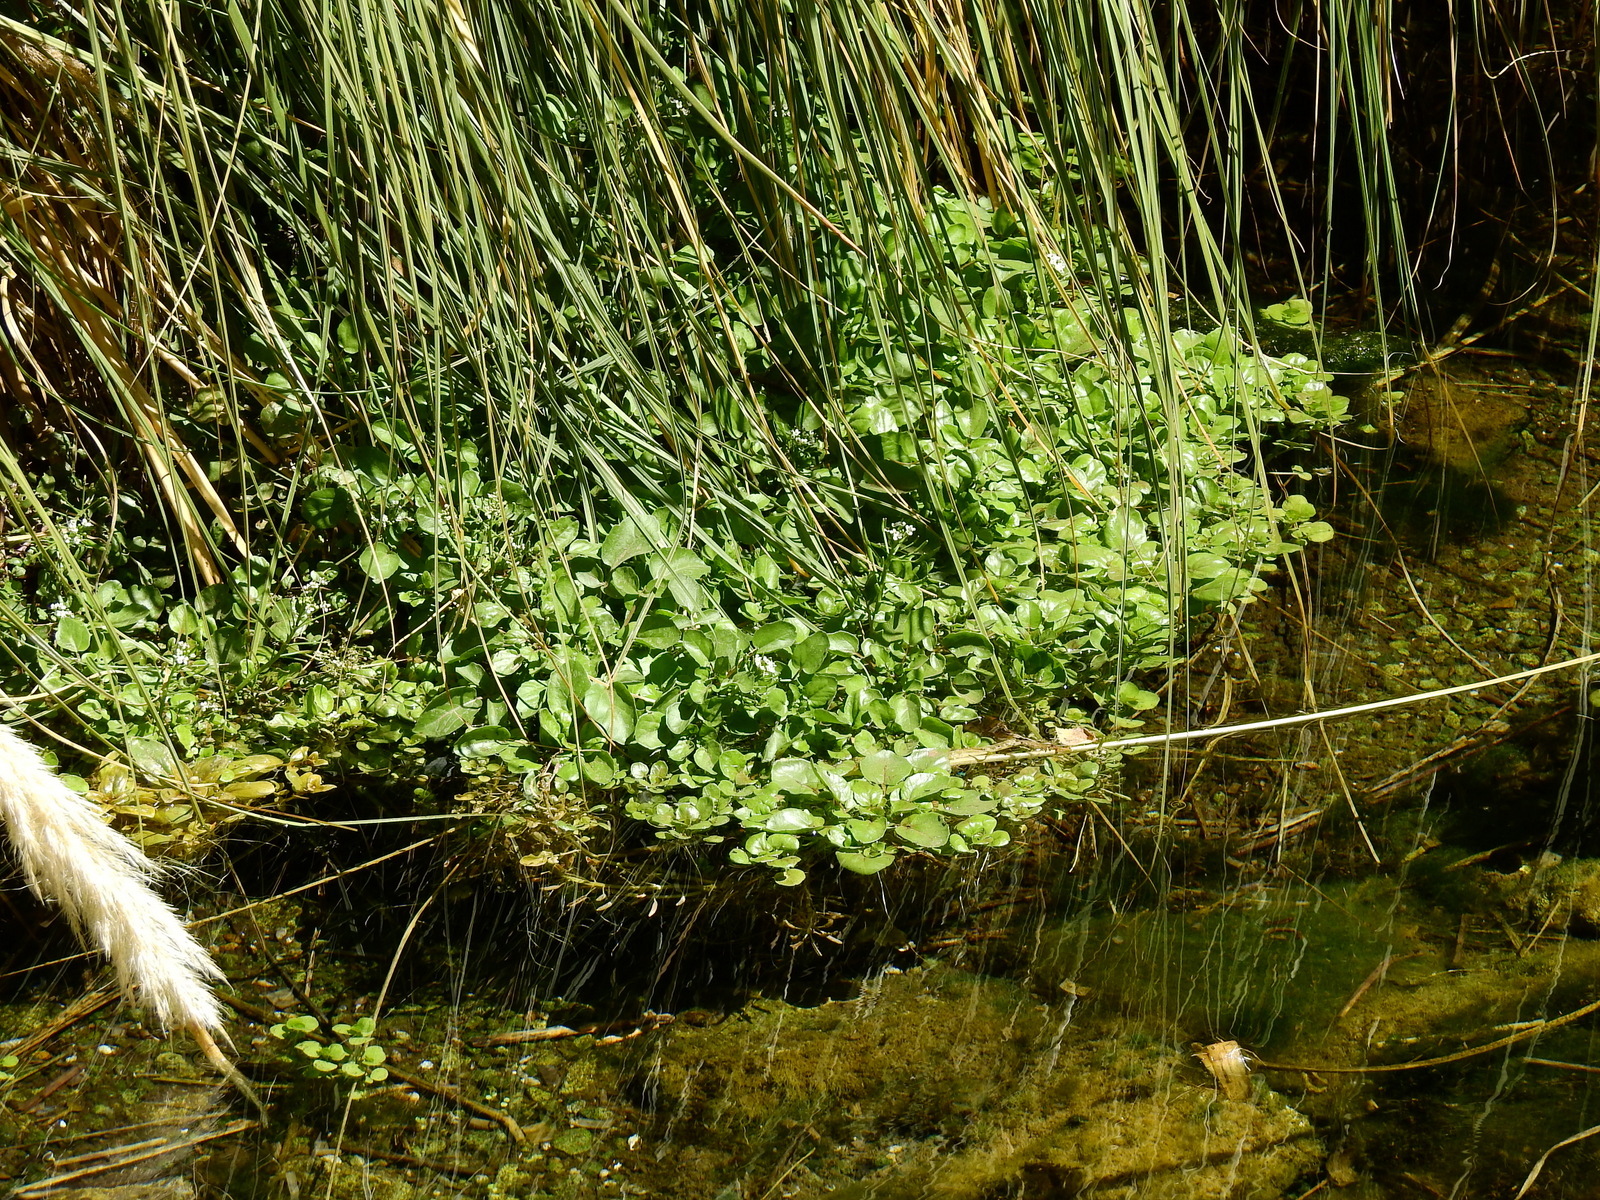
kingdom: Plantae
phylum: Tracheophyta
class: Magnoliopsida
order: Brassicales
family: Brassicaceae
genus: Nasturtium
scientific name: Nasturtium officinale
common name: Watercress
